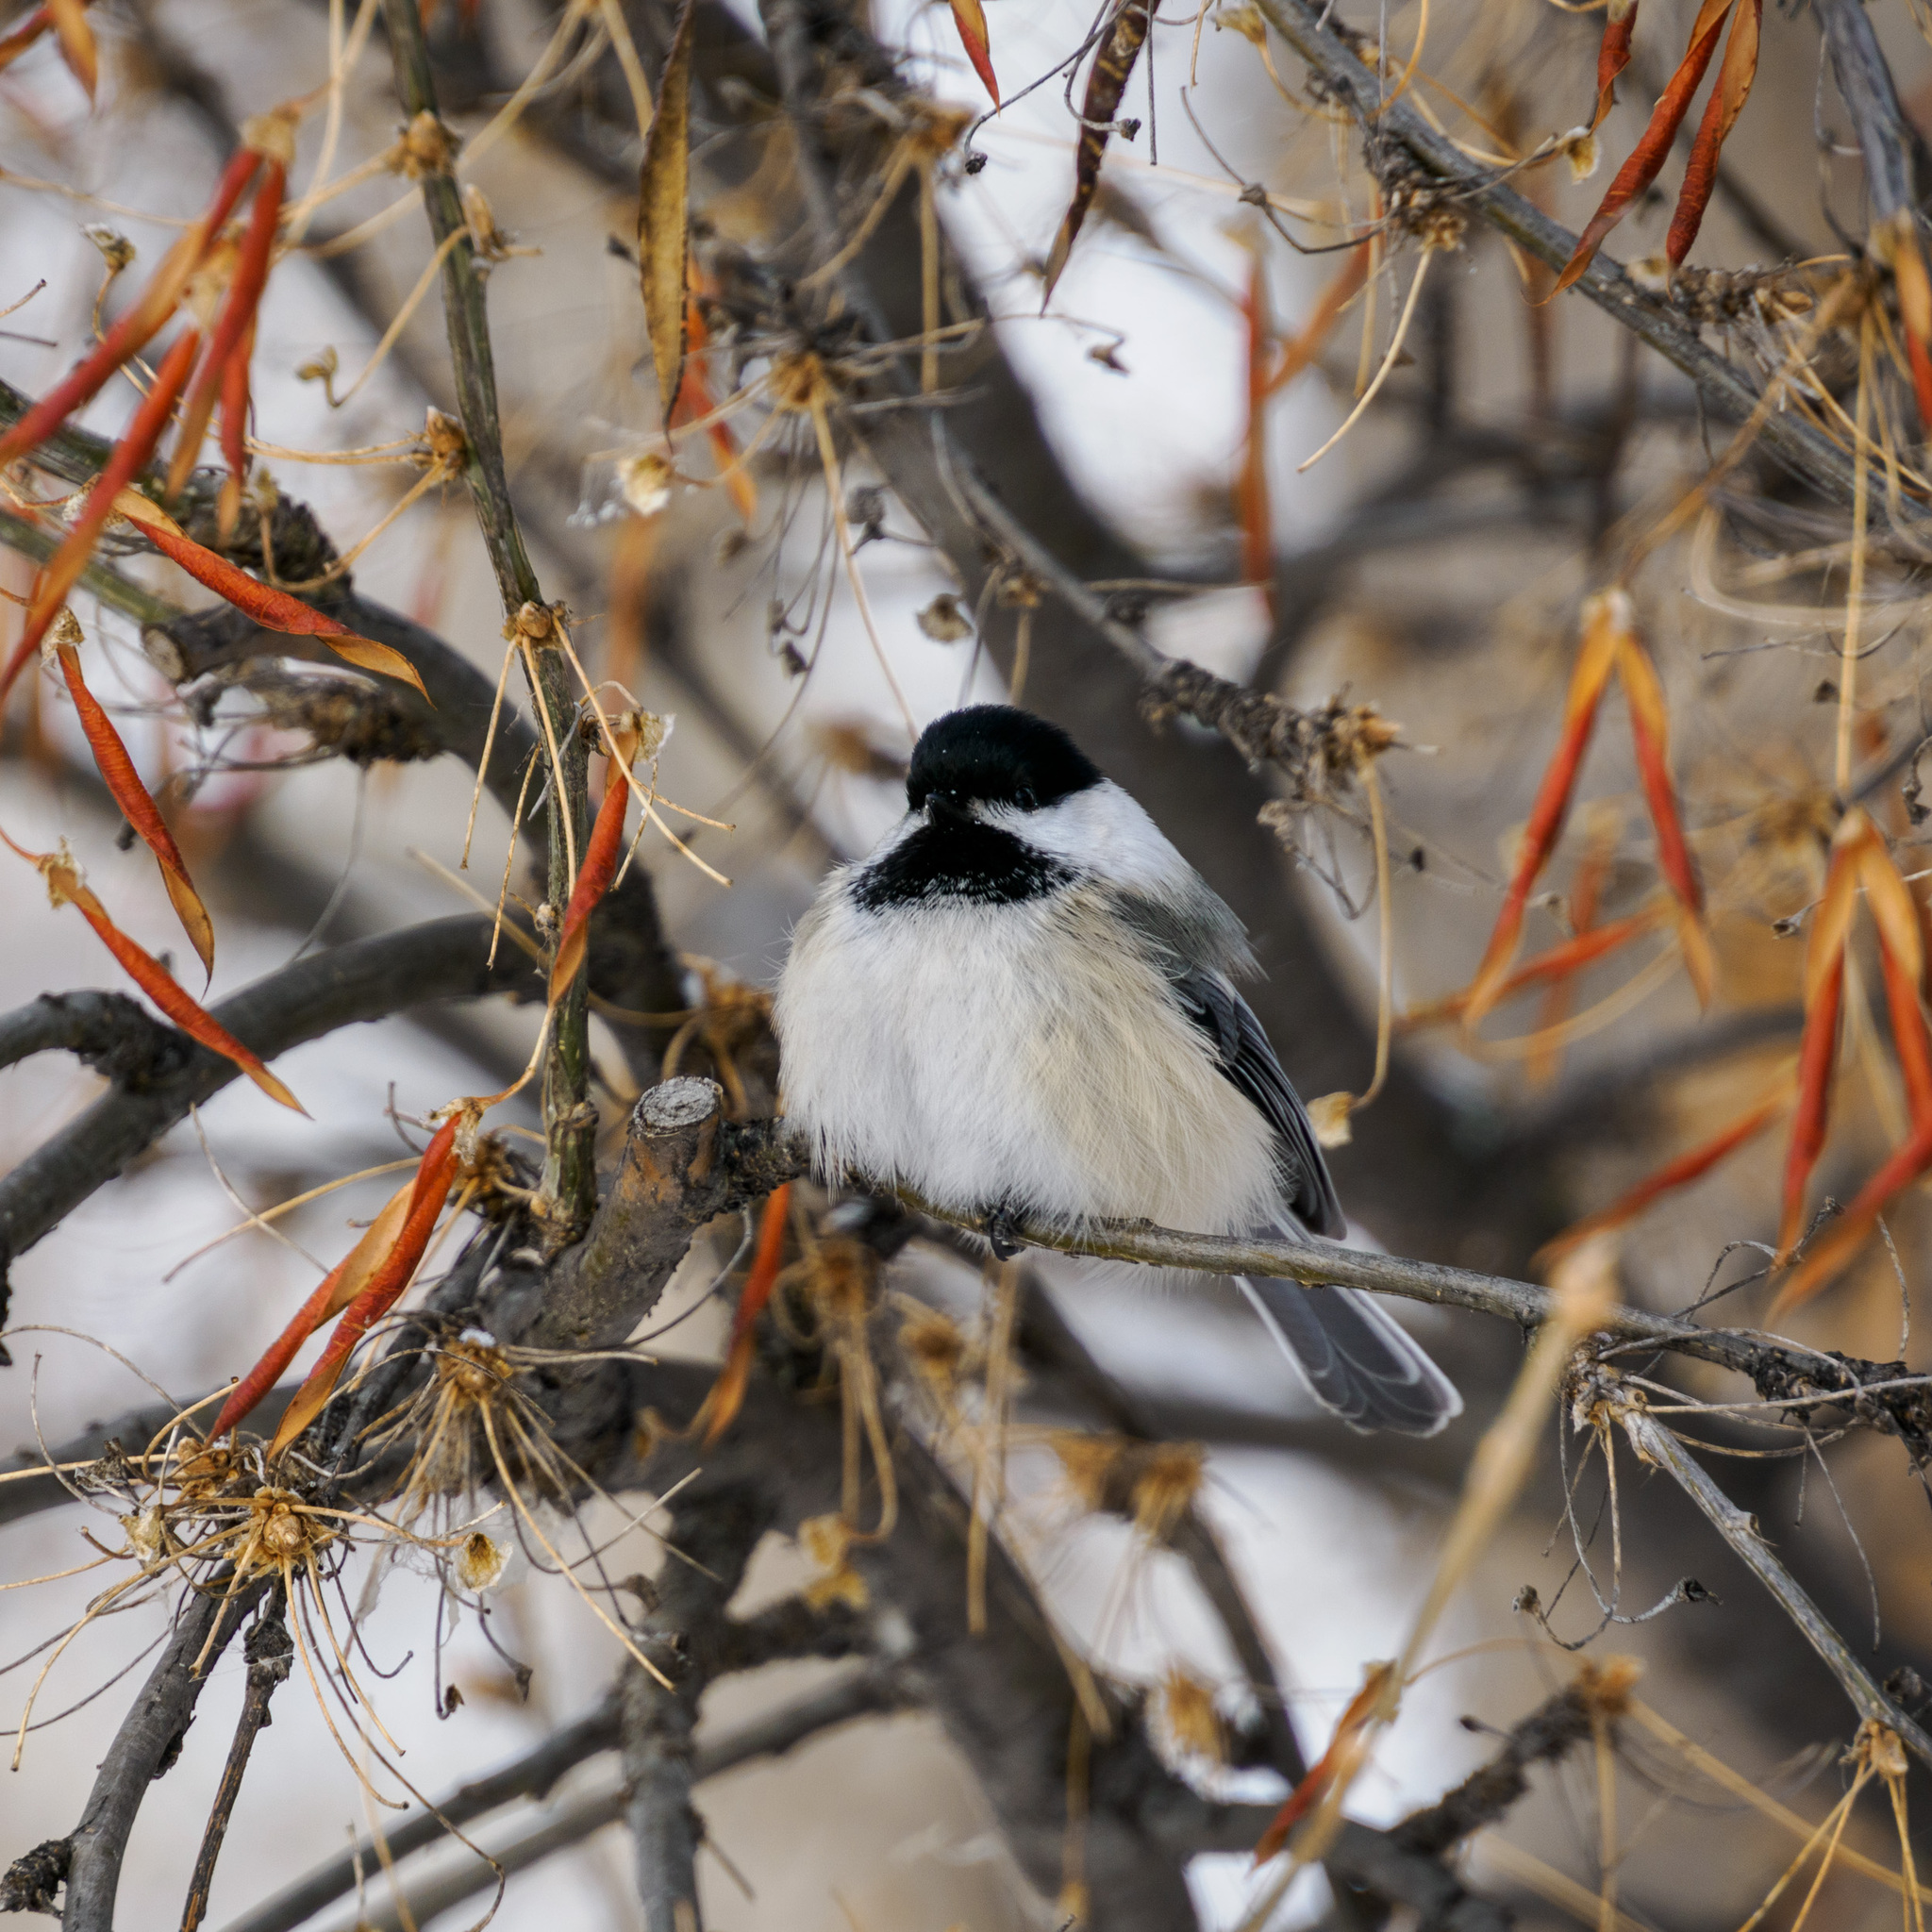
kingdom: Animalia
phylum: Chordata
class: Aves
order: Passeriformes
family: Paridae
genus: Poecile
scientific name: Poecile atricapillus
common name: Black-capped chickadee
